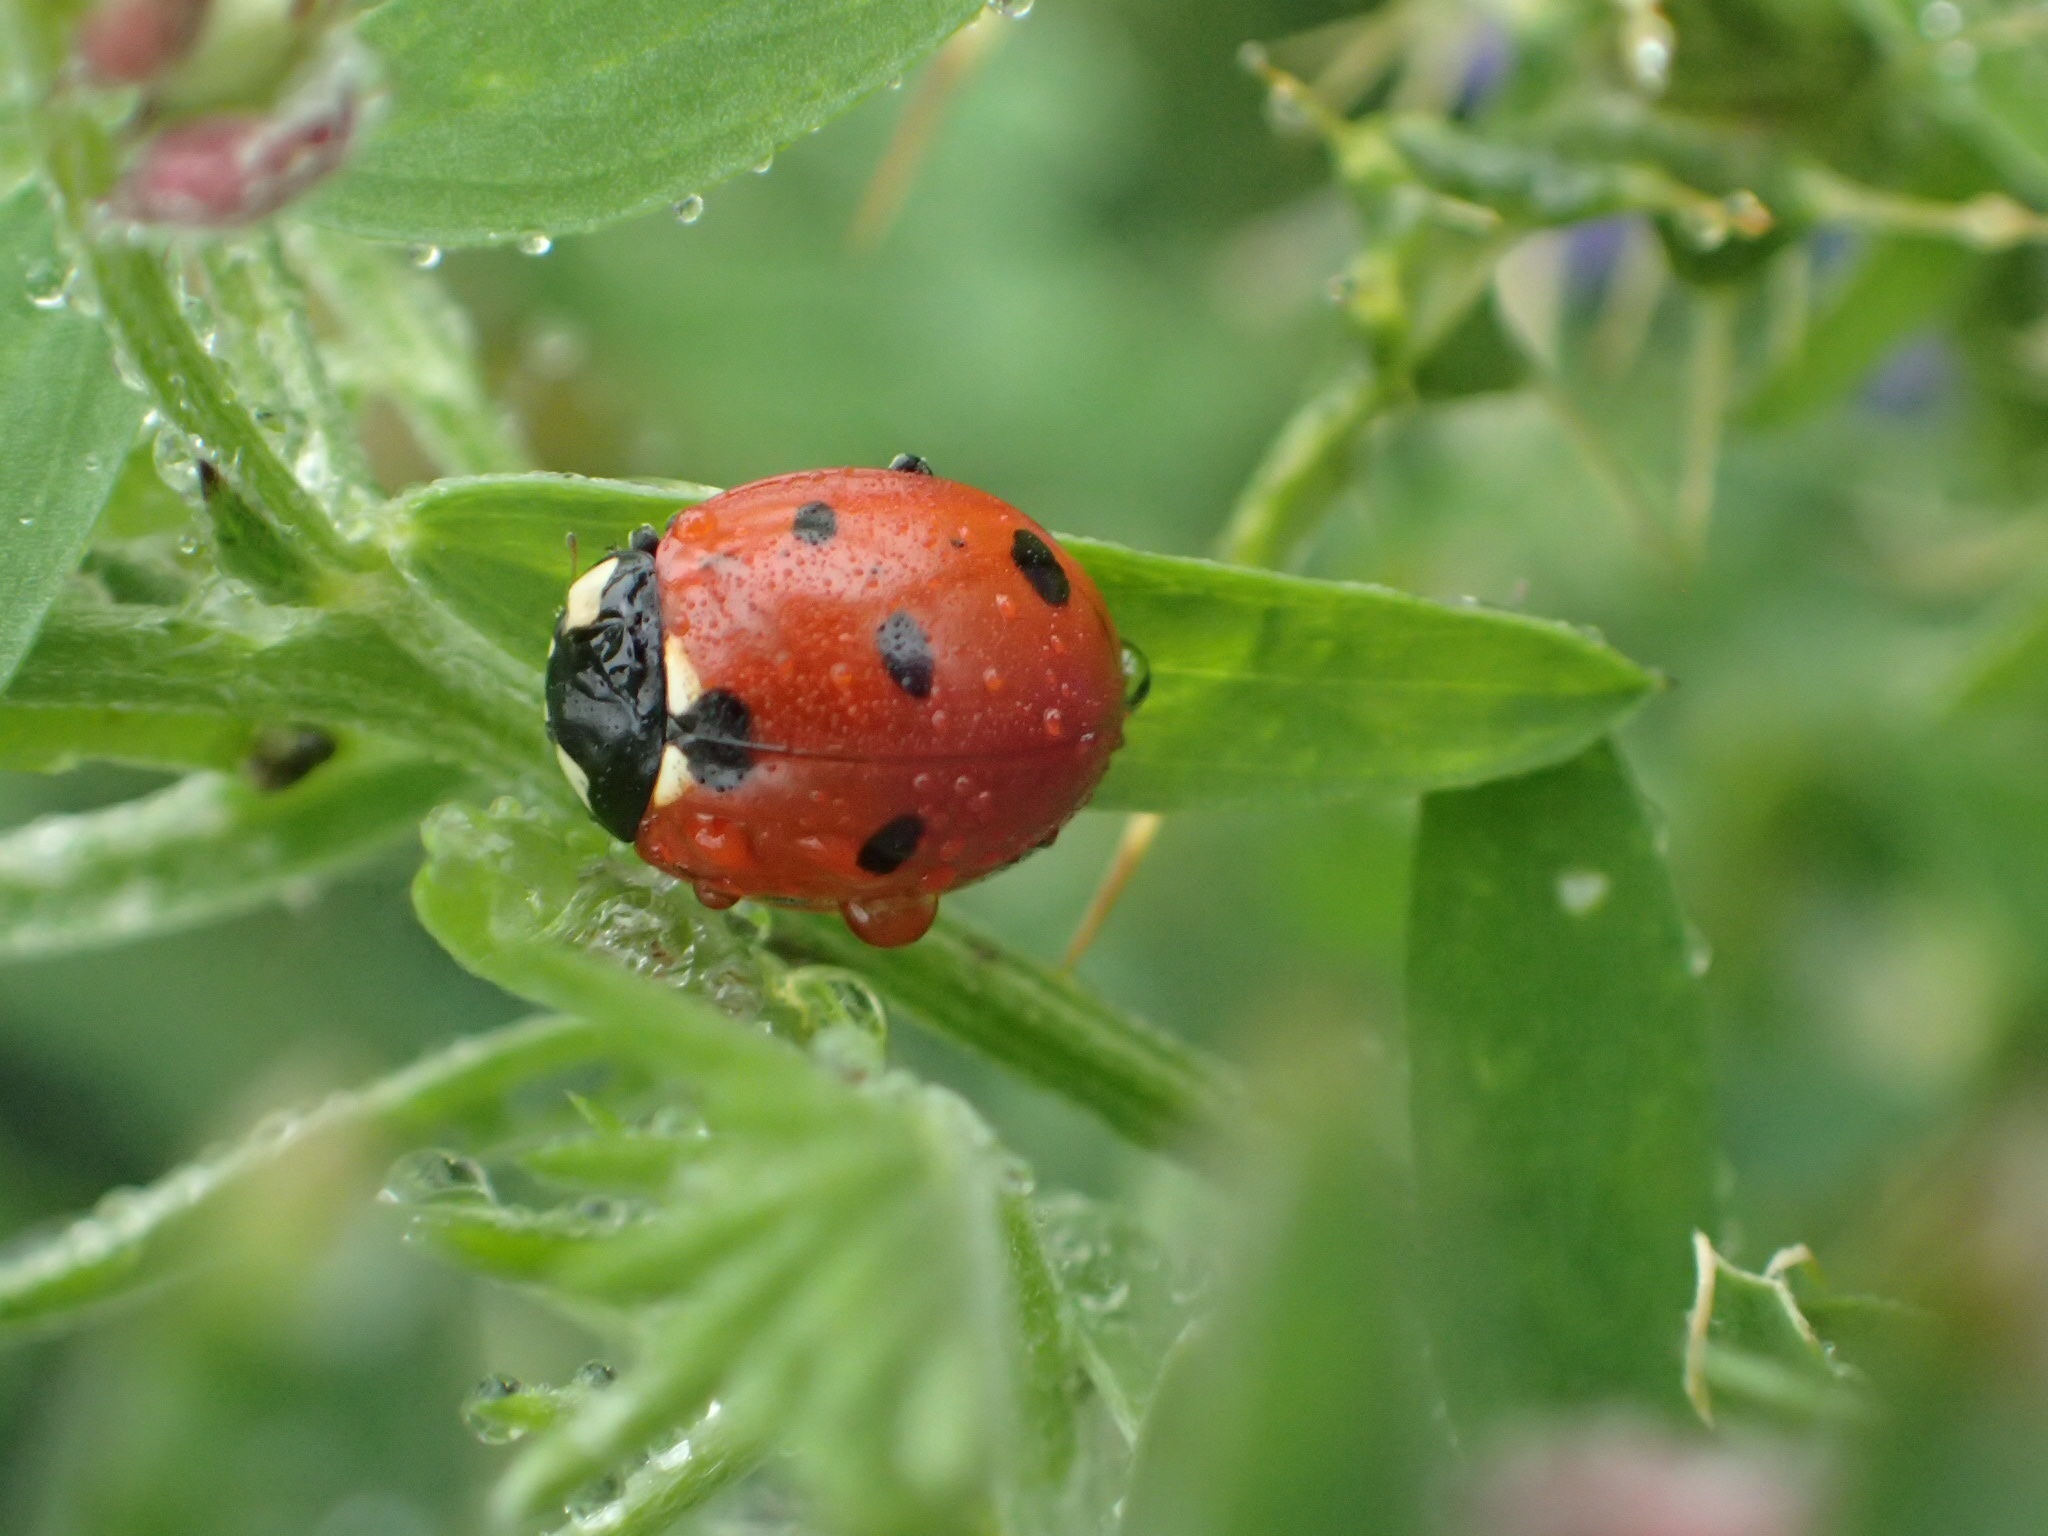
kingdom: Animalia
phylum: Arthropoda
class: Insecta
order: Coleoptera
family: Coccinellidae
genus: Coccinella
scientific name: Coccinella septempunctata
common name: Sevenspotted lady beetle
